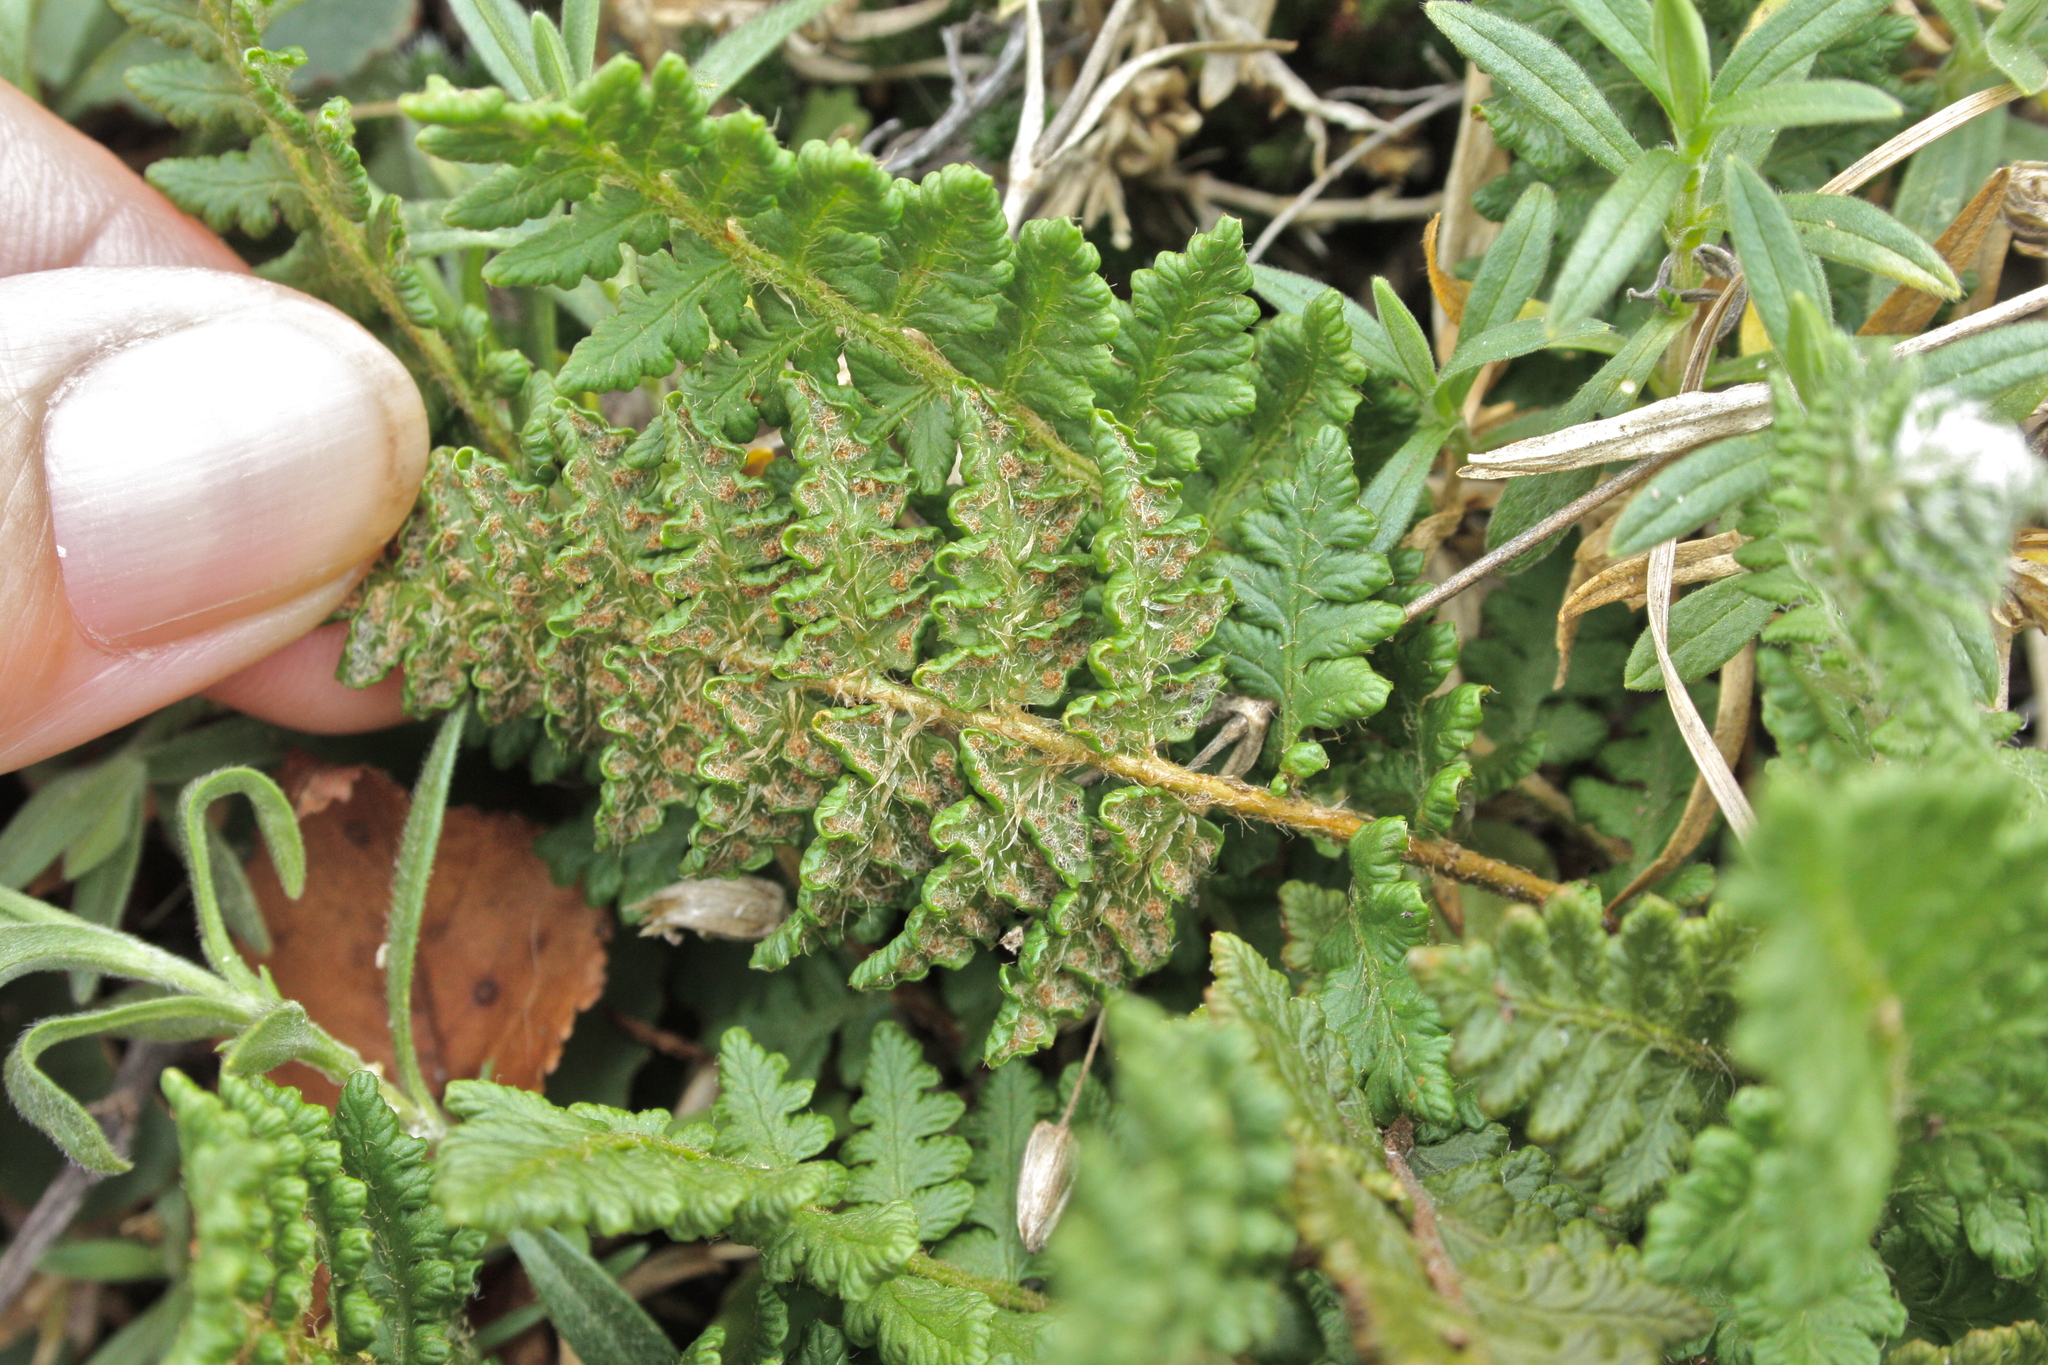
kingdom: Plantae
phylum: Tracheophyta
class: Polypodiopsida
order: Polypodiales
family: Woodsiaceae
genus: Woodsia
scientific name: Woodsia ilvensis
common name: Fragrant woodsia
